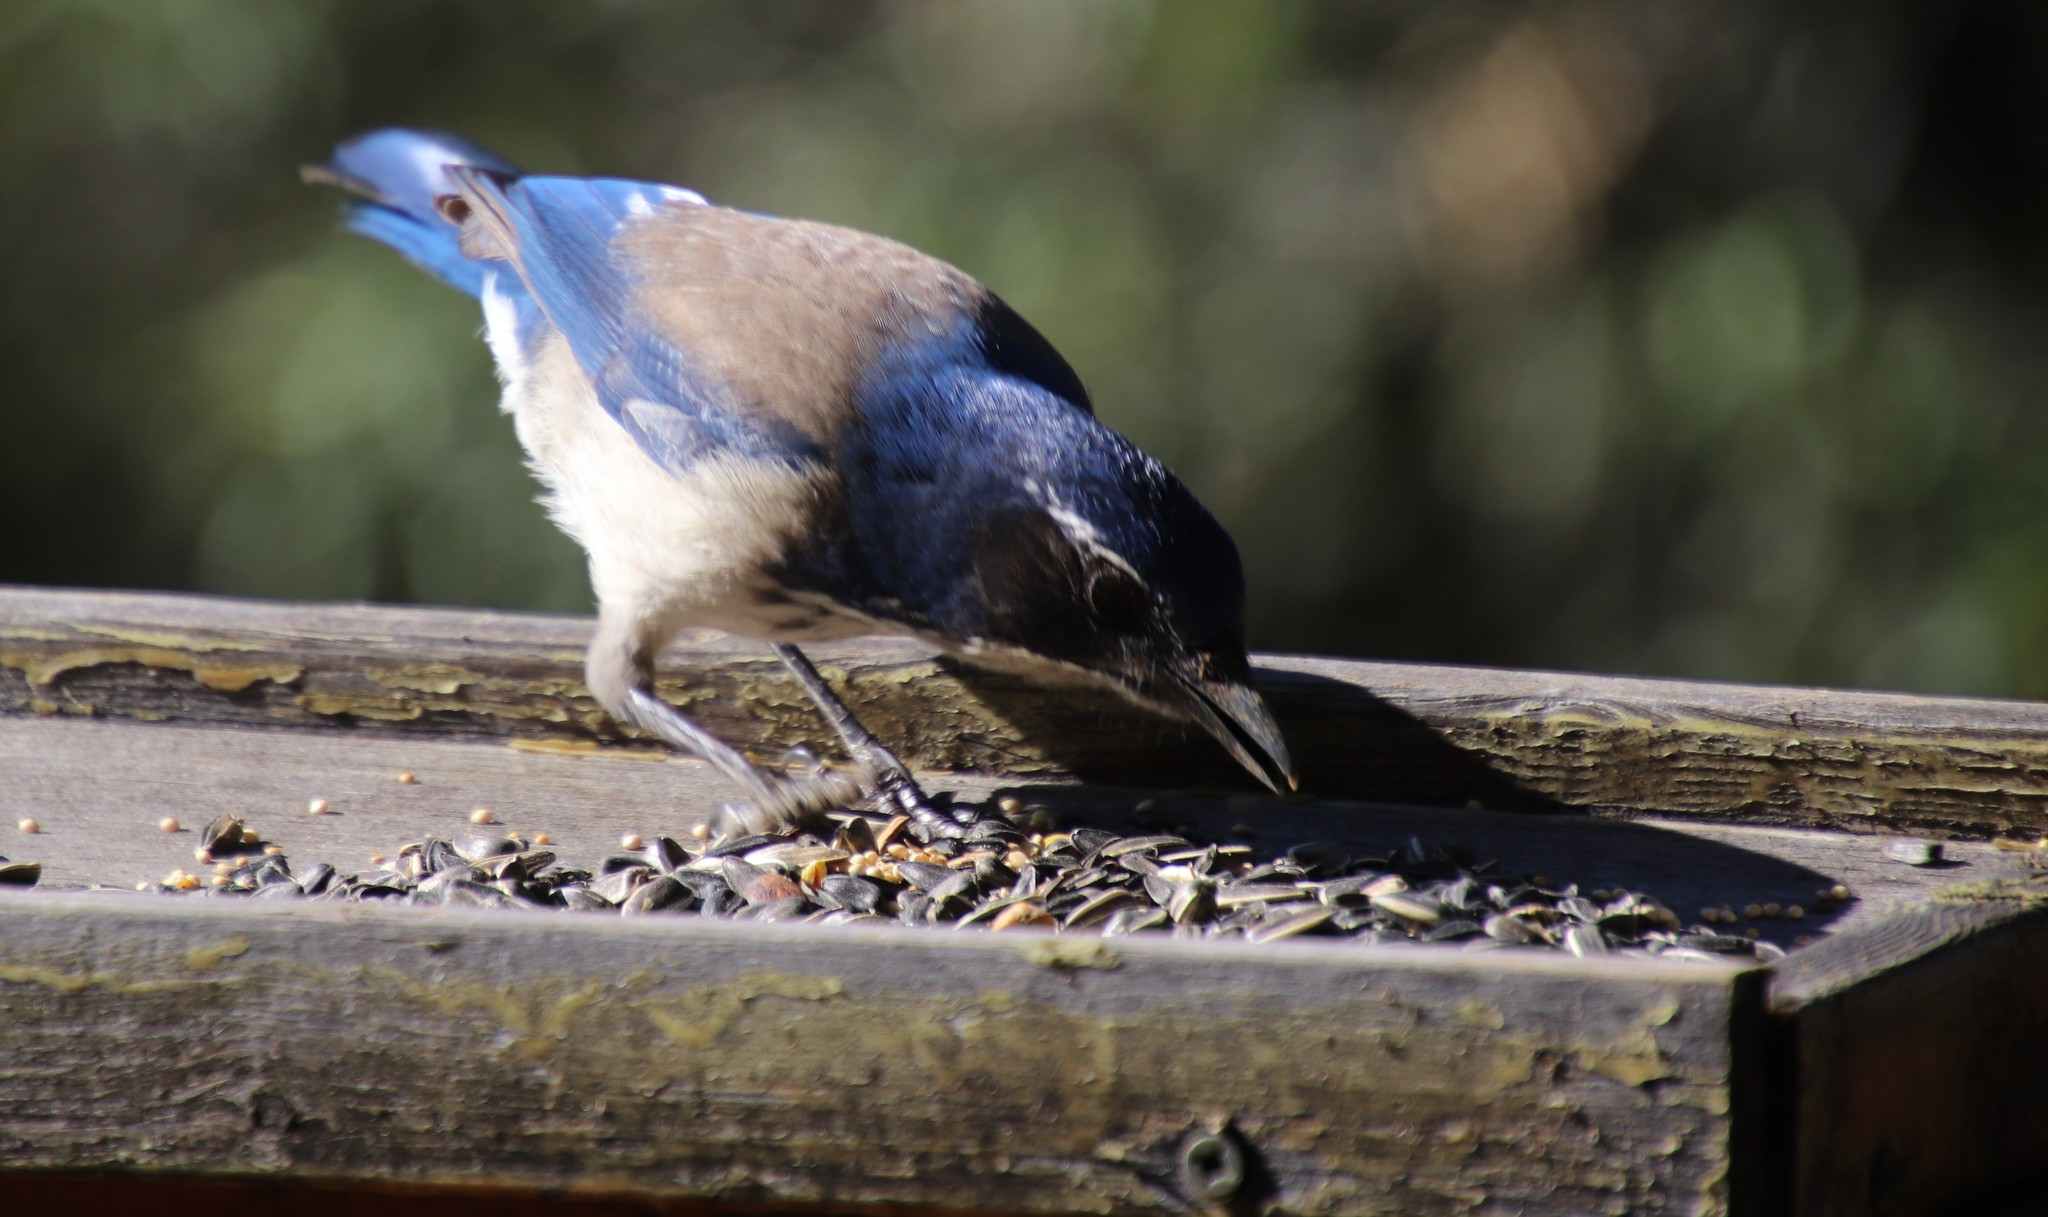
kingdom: Animalia
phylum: Chordata
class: Aves
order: Passeriformes
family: Corvidae
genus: Aphelocoma
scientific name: Aphelocoma californica
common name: California scrub-jay
